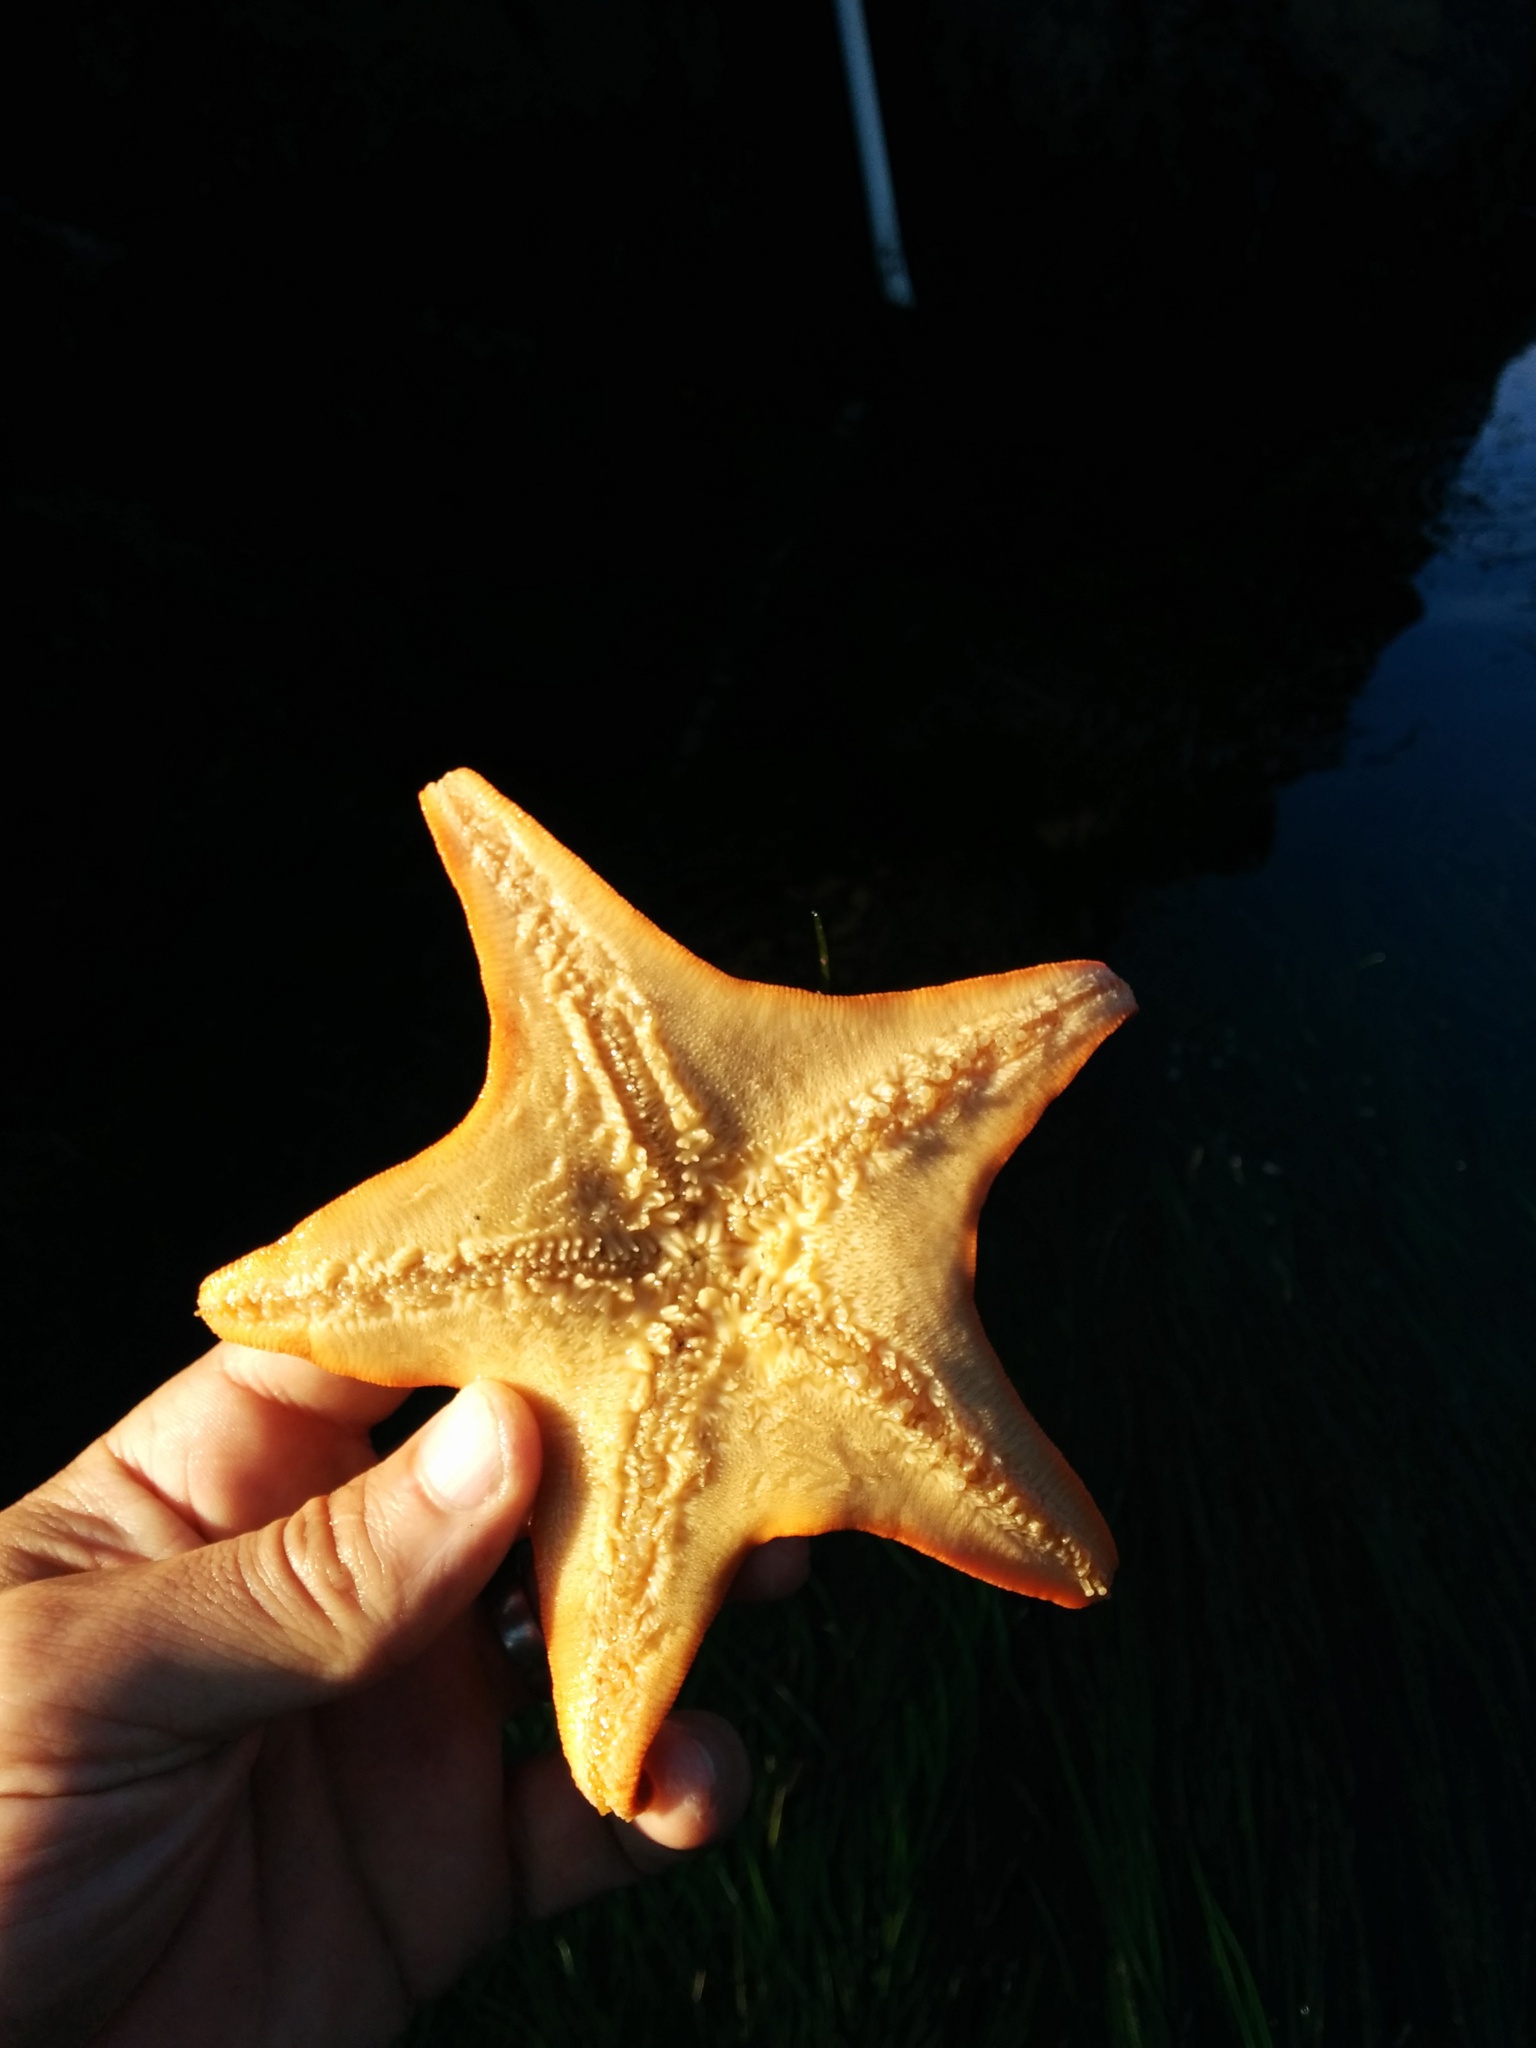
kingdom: Animalia
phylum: Echinodermata
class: Asteroidea
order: Valvatida
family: Asterinidae
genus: Patiria
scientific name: Patiria miniata
